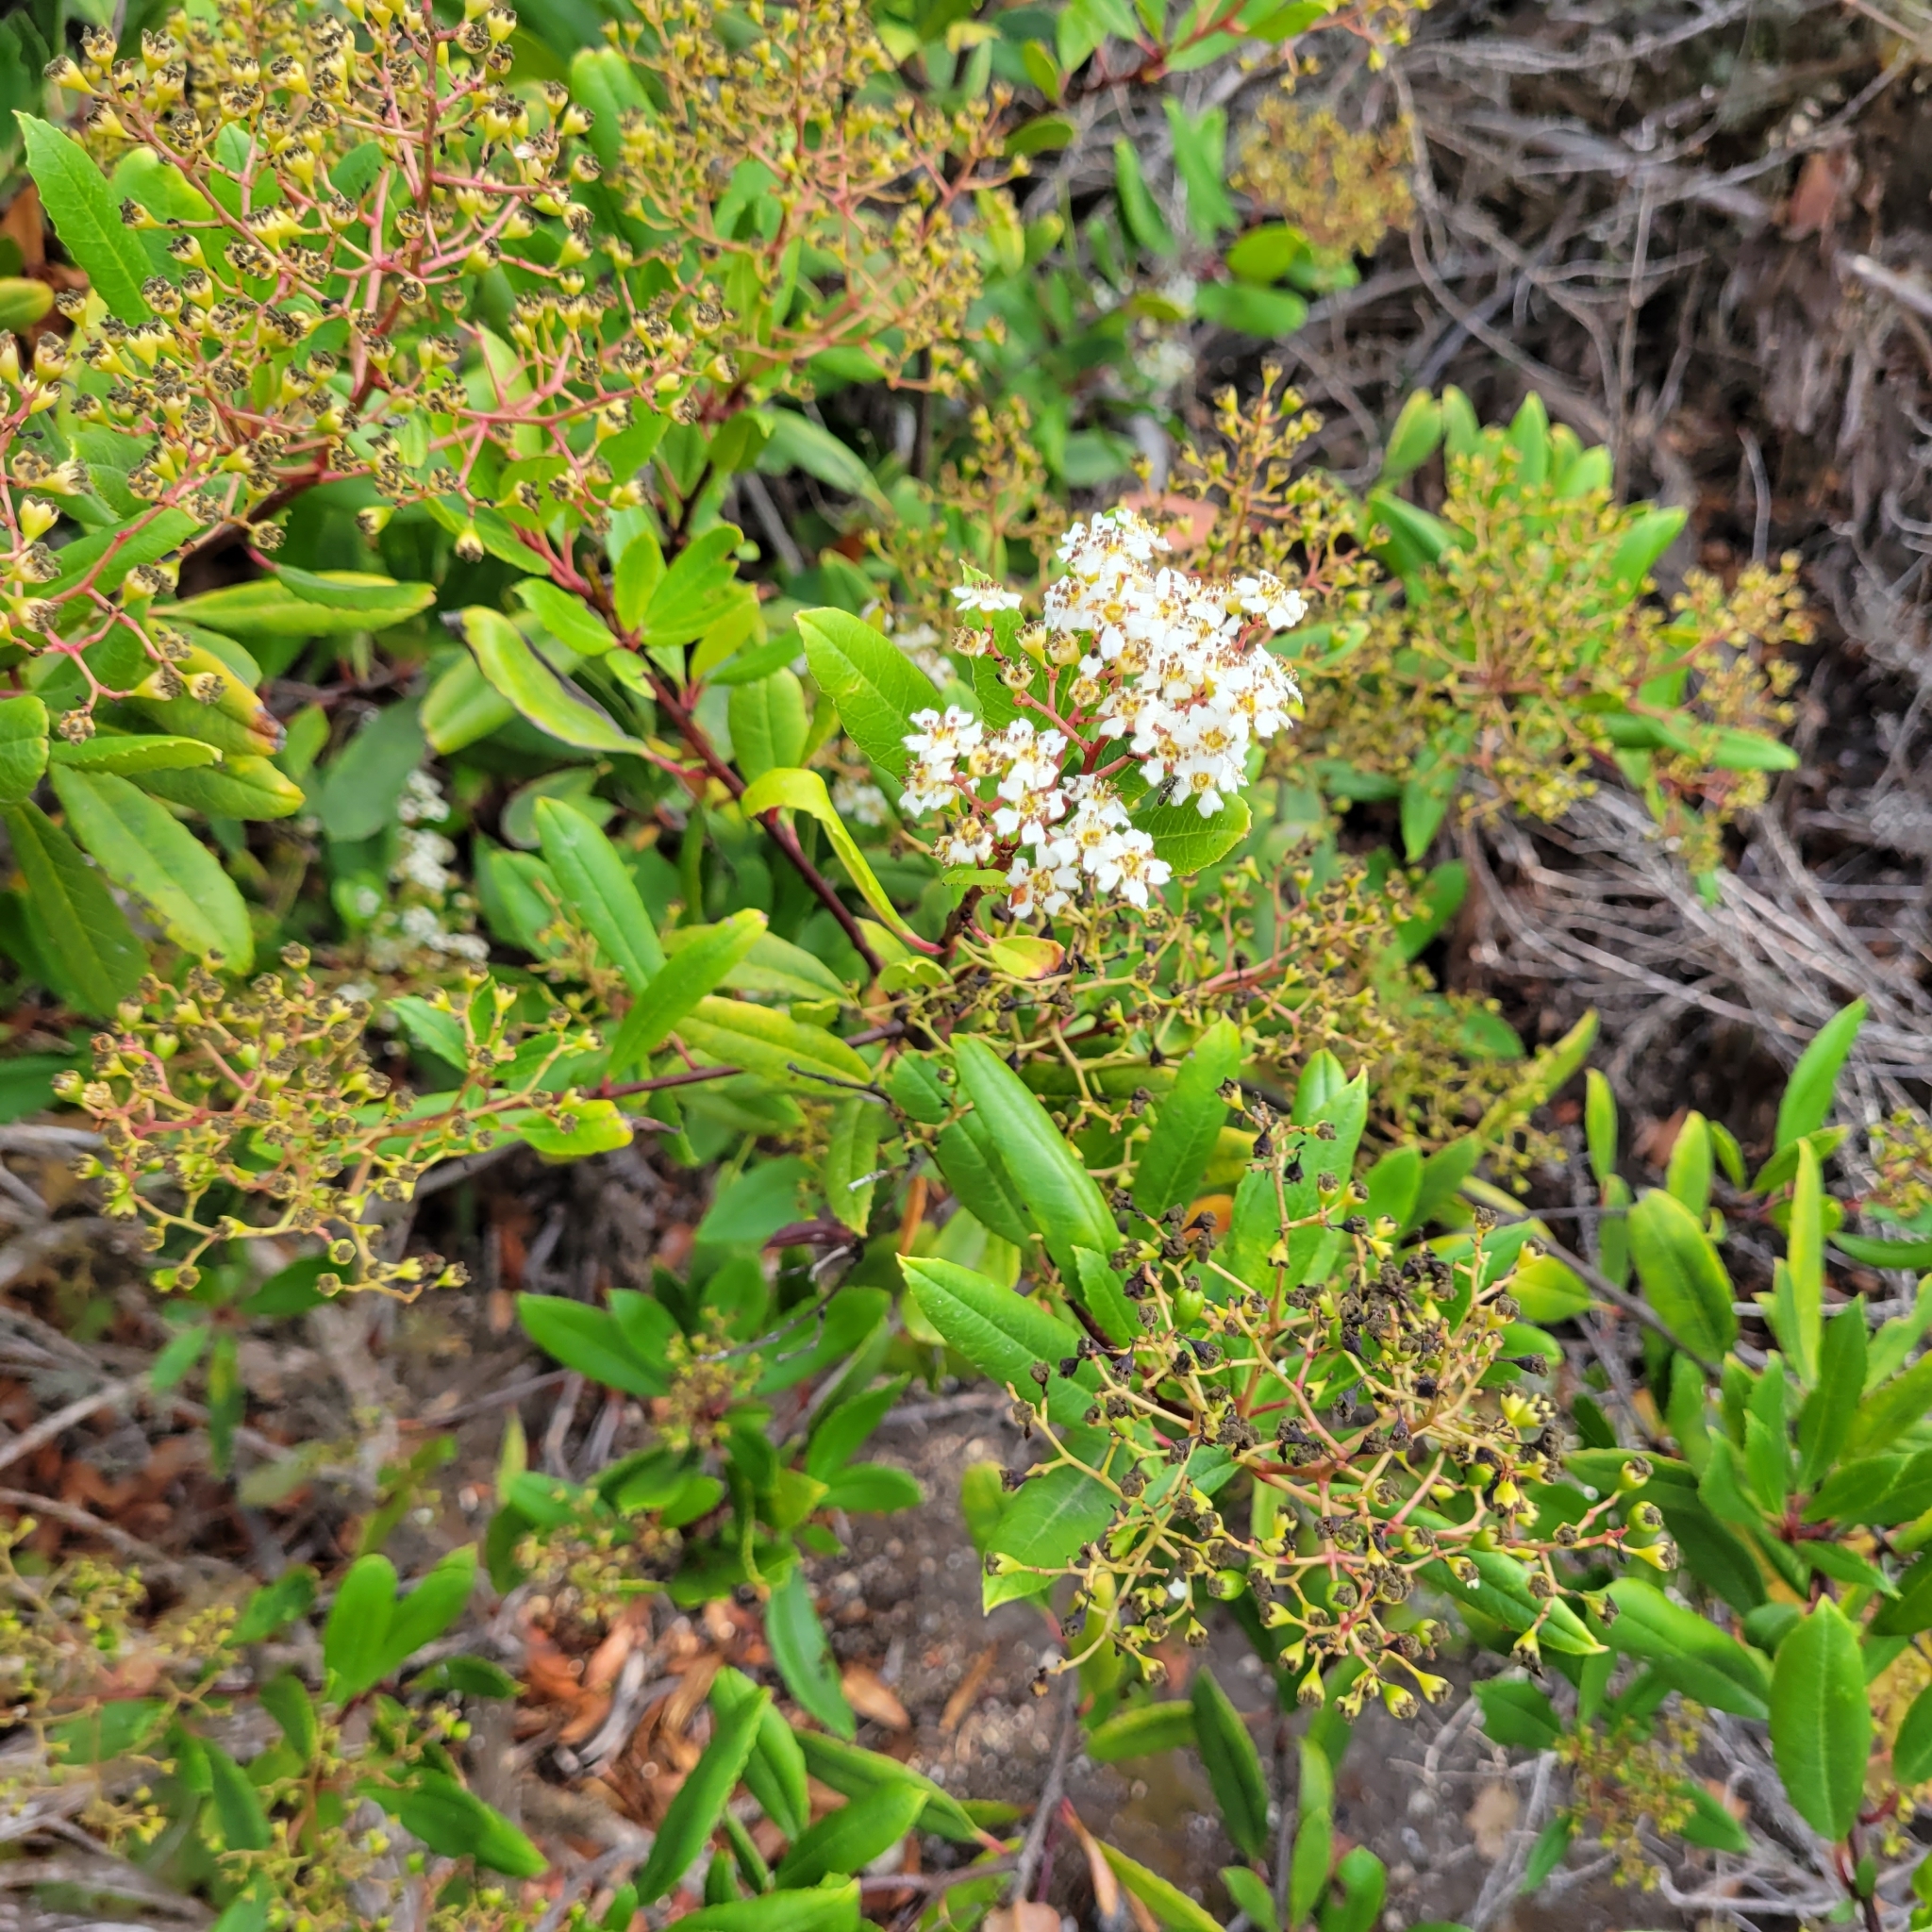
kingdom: Plantae
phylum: Tracheophyta
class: Magnoliopsida
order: Rosales
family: Rosaceae
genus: Heteromeles
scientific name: Heteromeles arbutifolia
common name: California-holly
